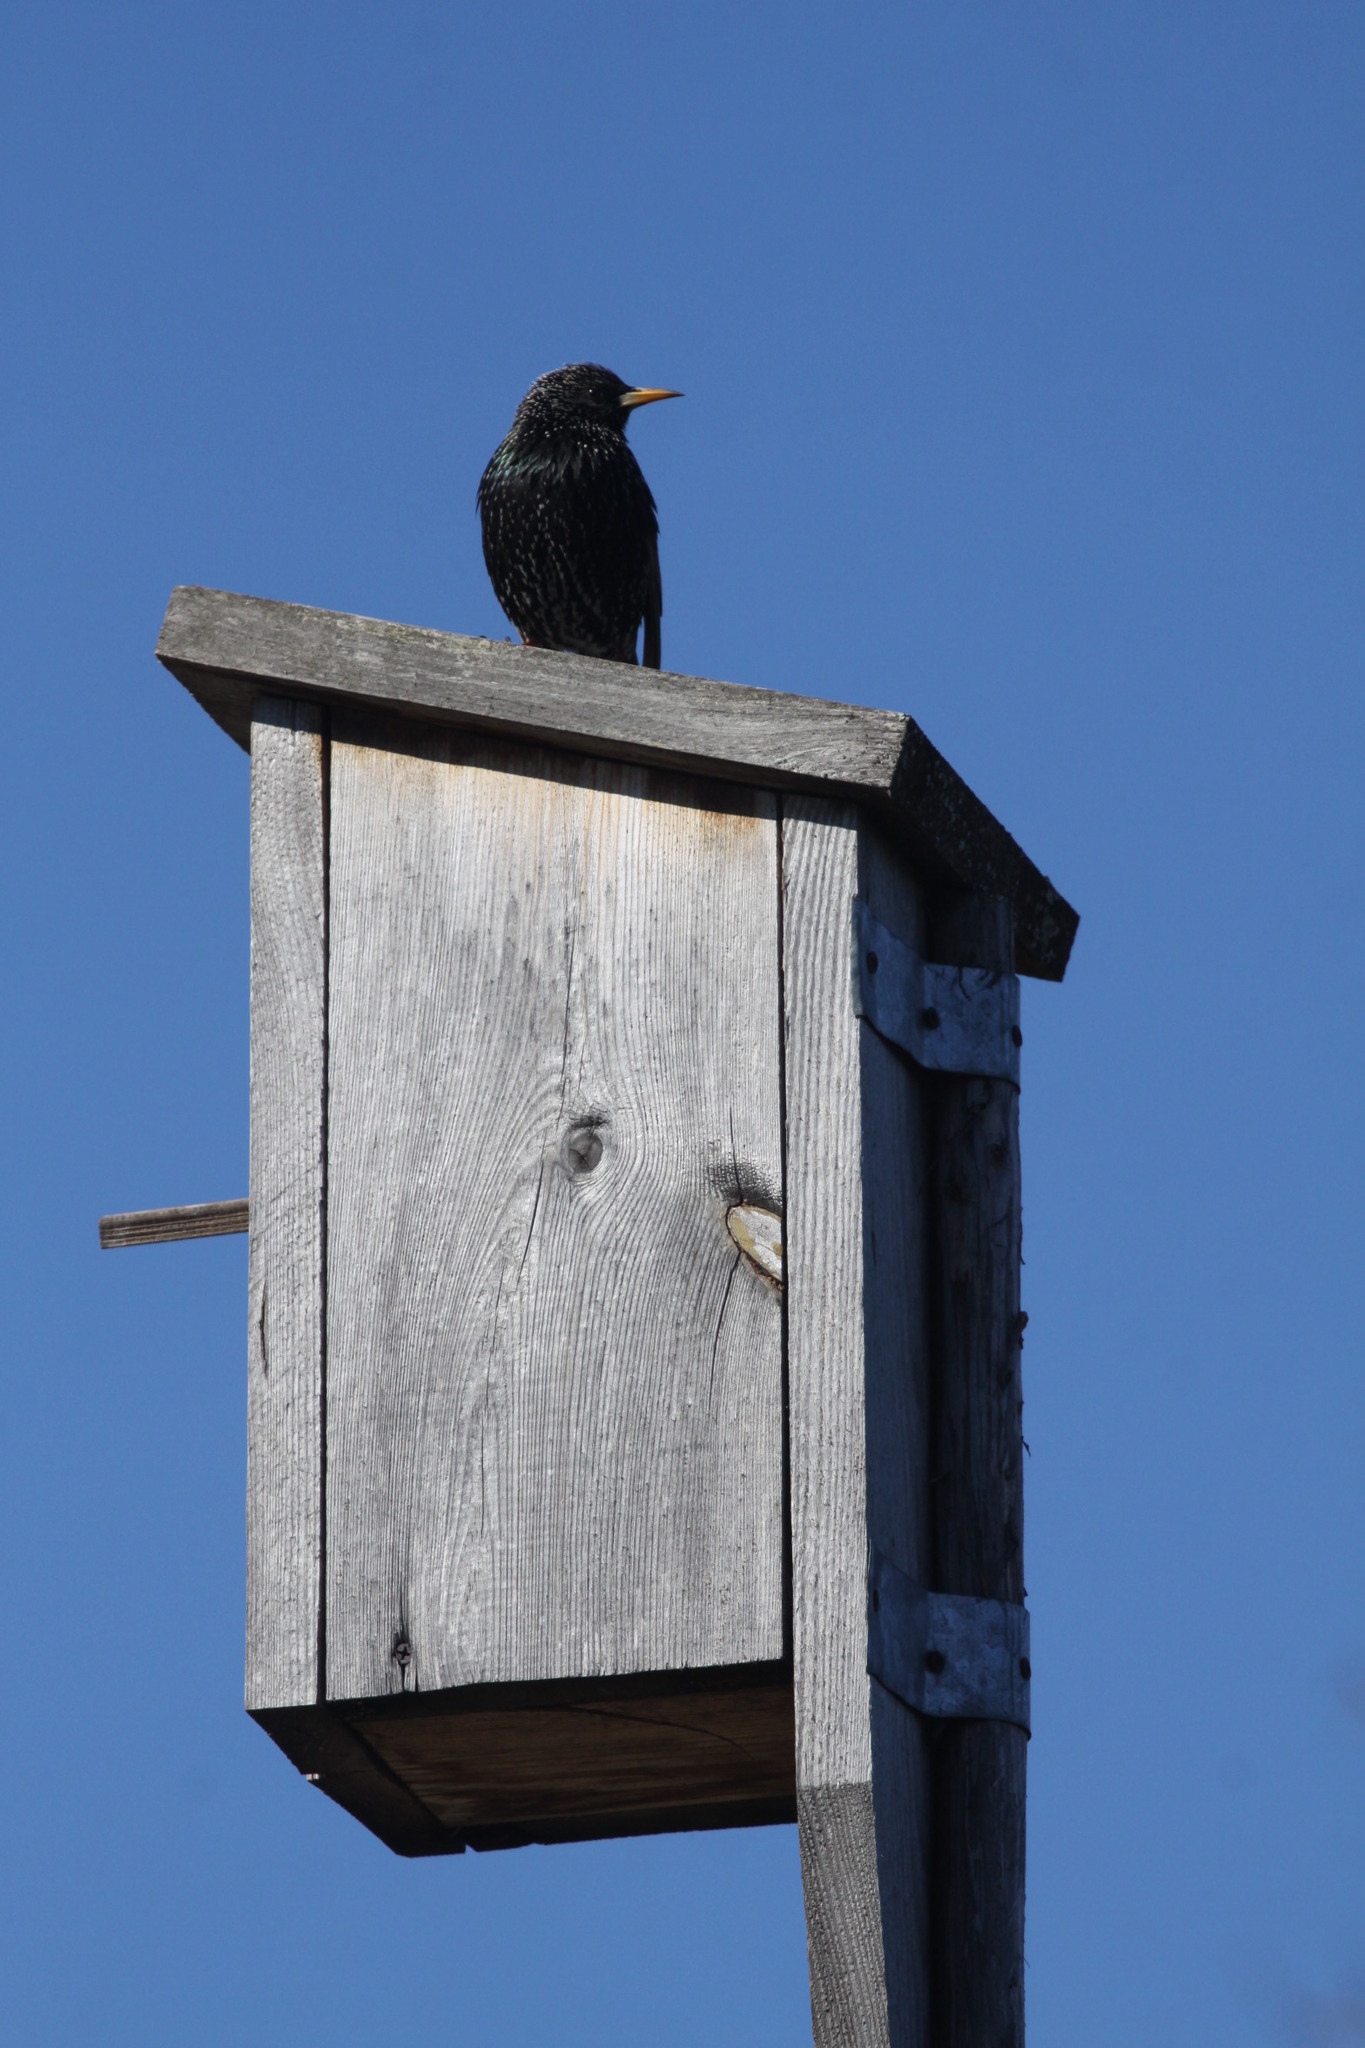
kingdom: Animalia
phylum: Chordata
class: Aves
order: Passeriformes
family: Sturnidae
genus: Sturnus
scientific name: Sturnus vulgaris
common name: Common starling
